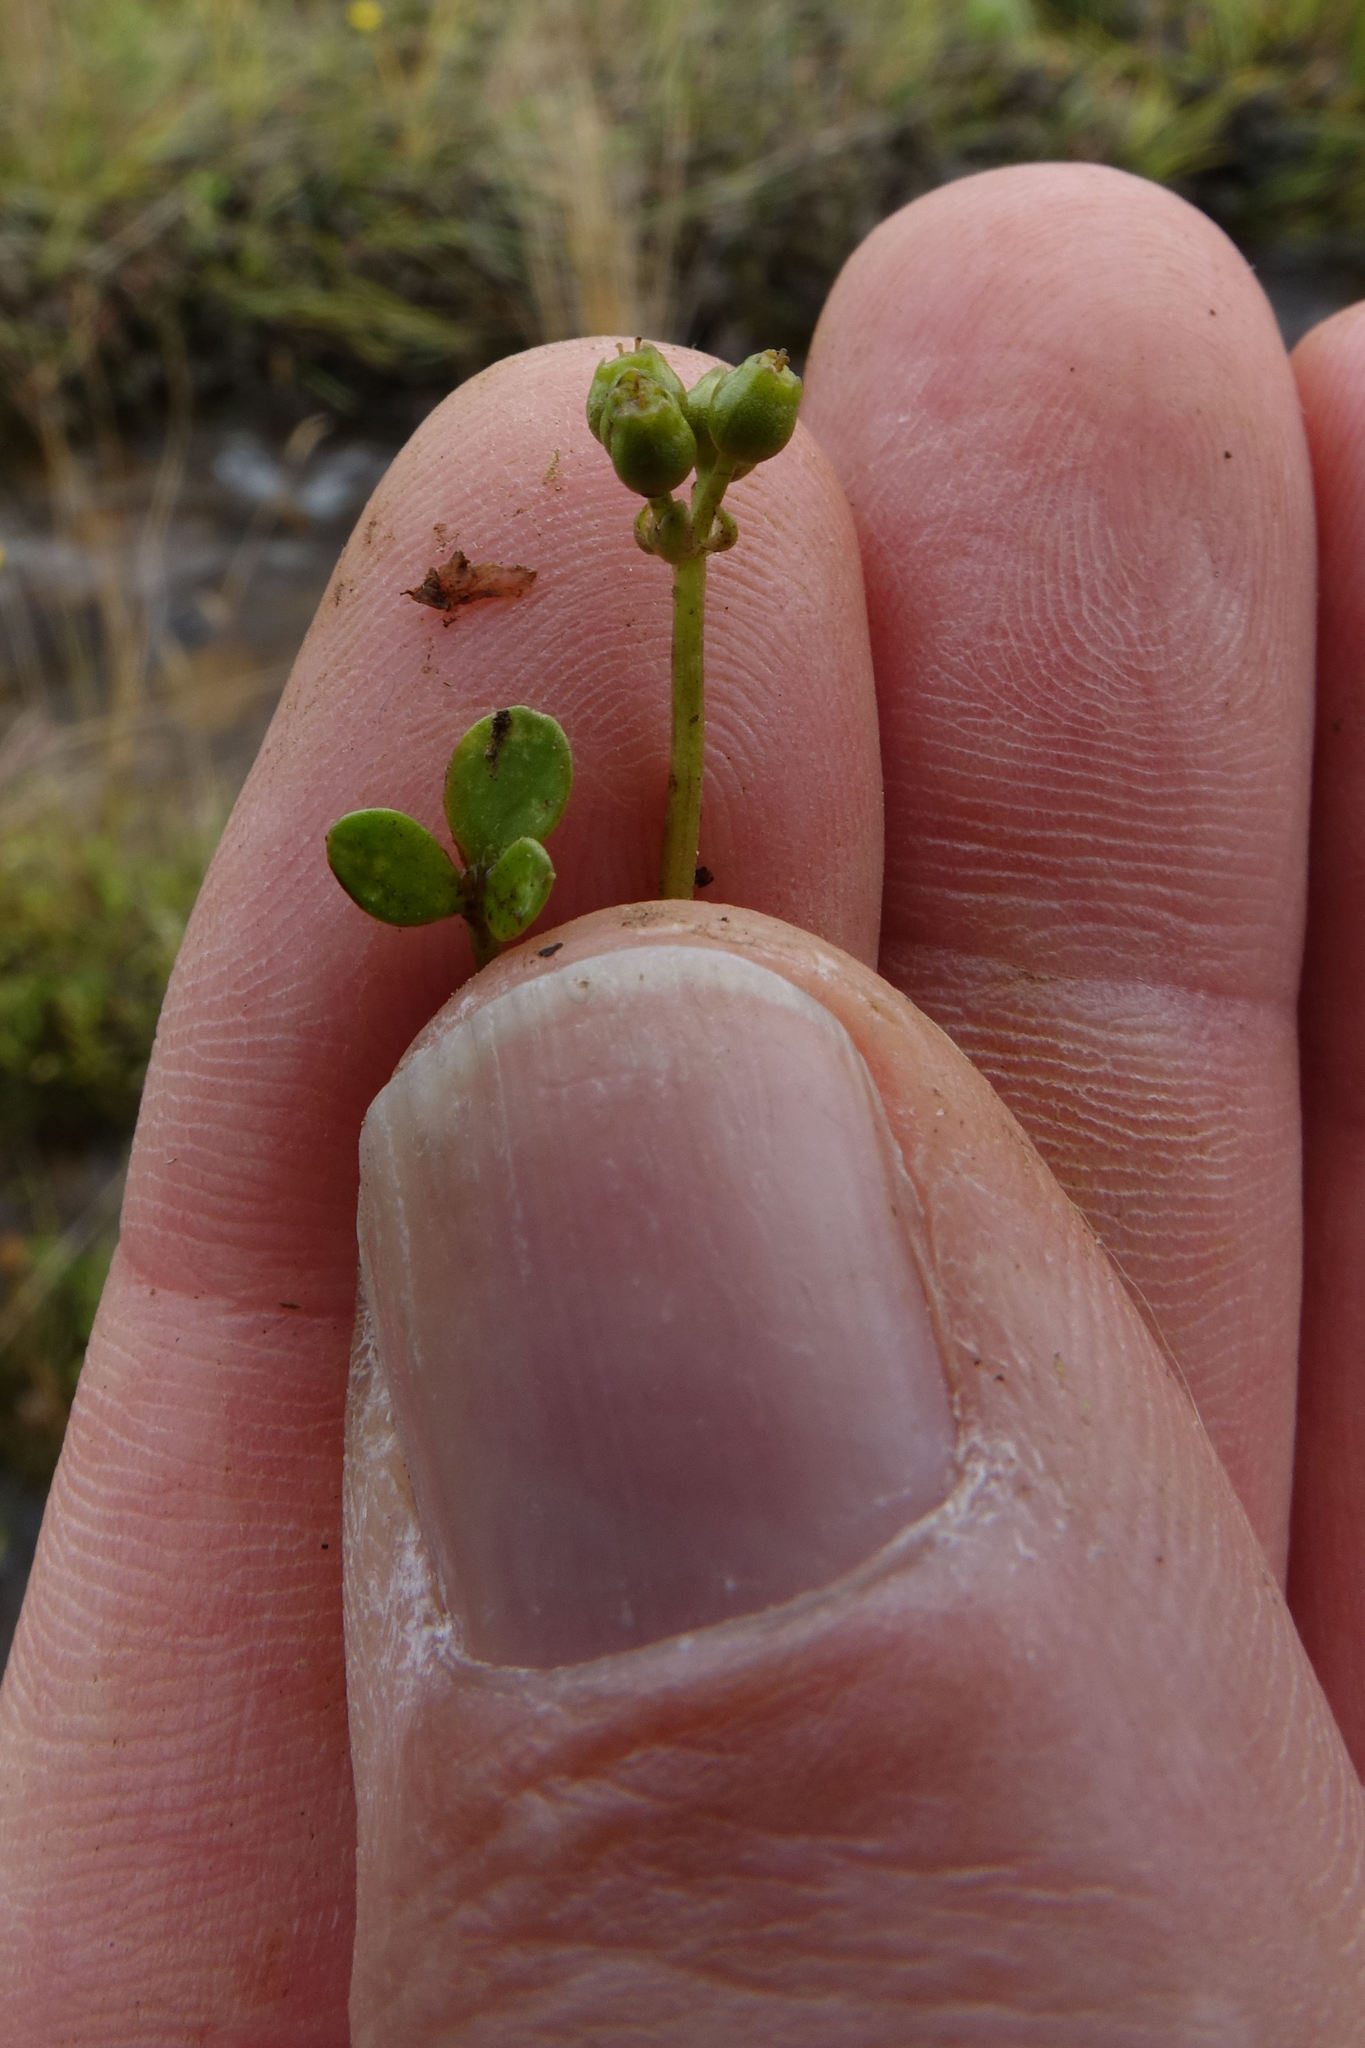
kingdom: Plantae
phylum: Tracheophyta
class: Magnoliopsida
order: Apiales
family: Apiaceae
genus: Azorella
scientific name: Azorella nitens
